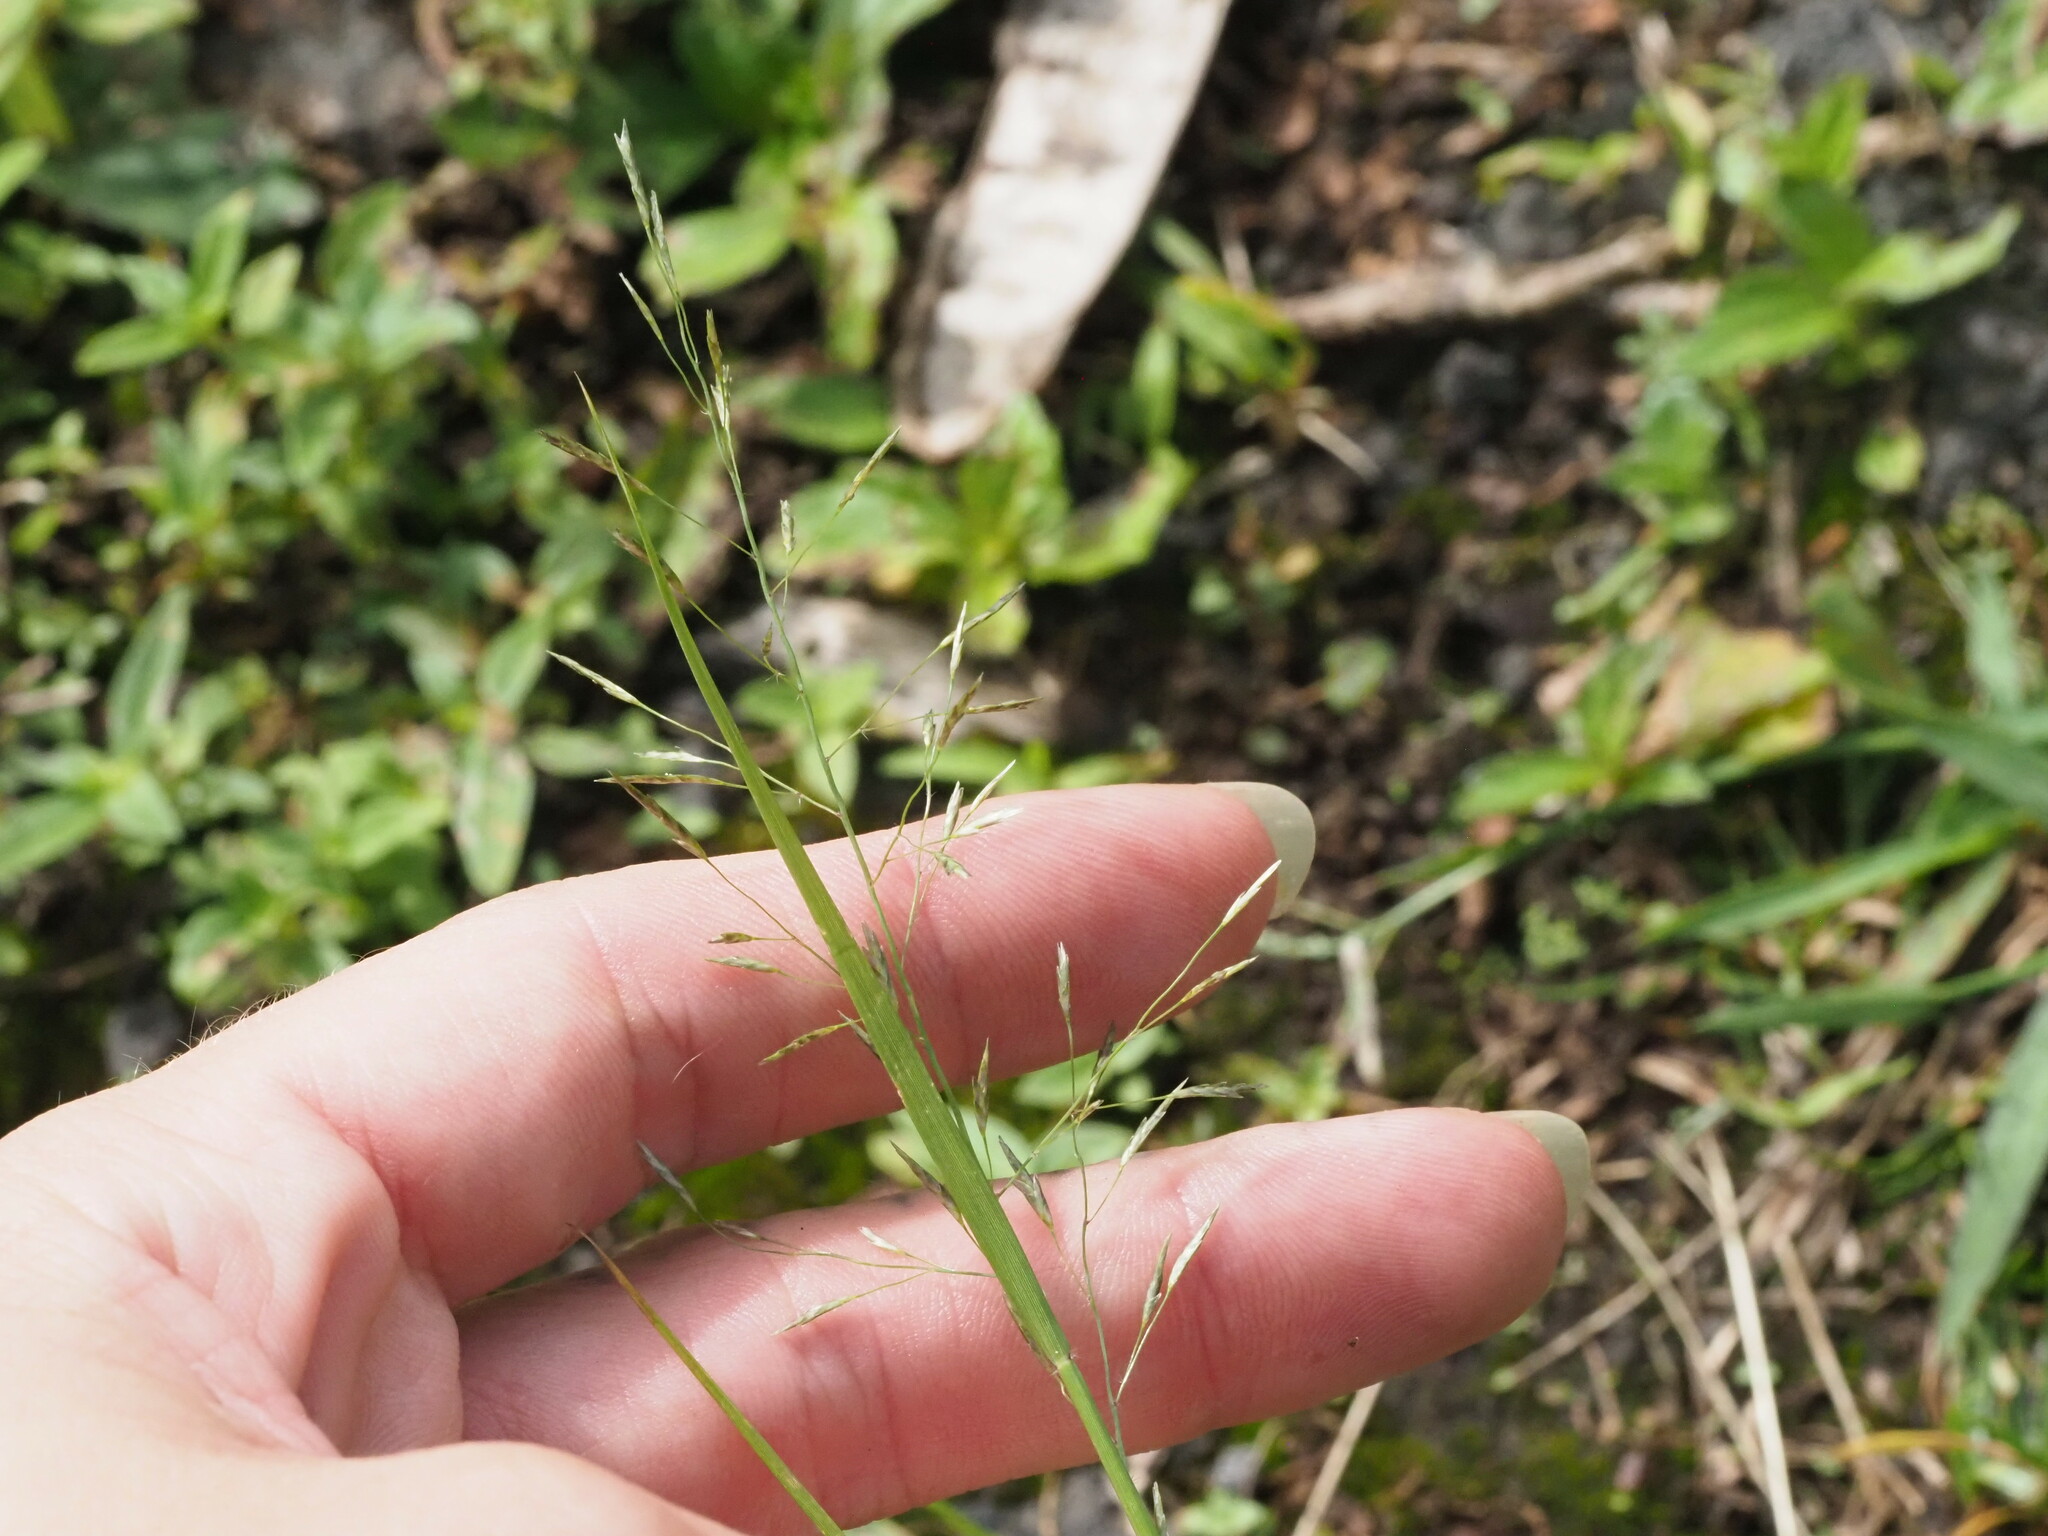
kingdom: Plantae
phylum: Tracheophyta
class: Liliopsida
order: Poales
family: Poaceae
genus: Eragrostis
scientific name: Eragrostis tenuifolia
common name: Elastic grass
